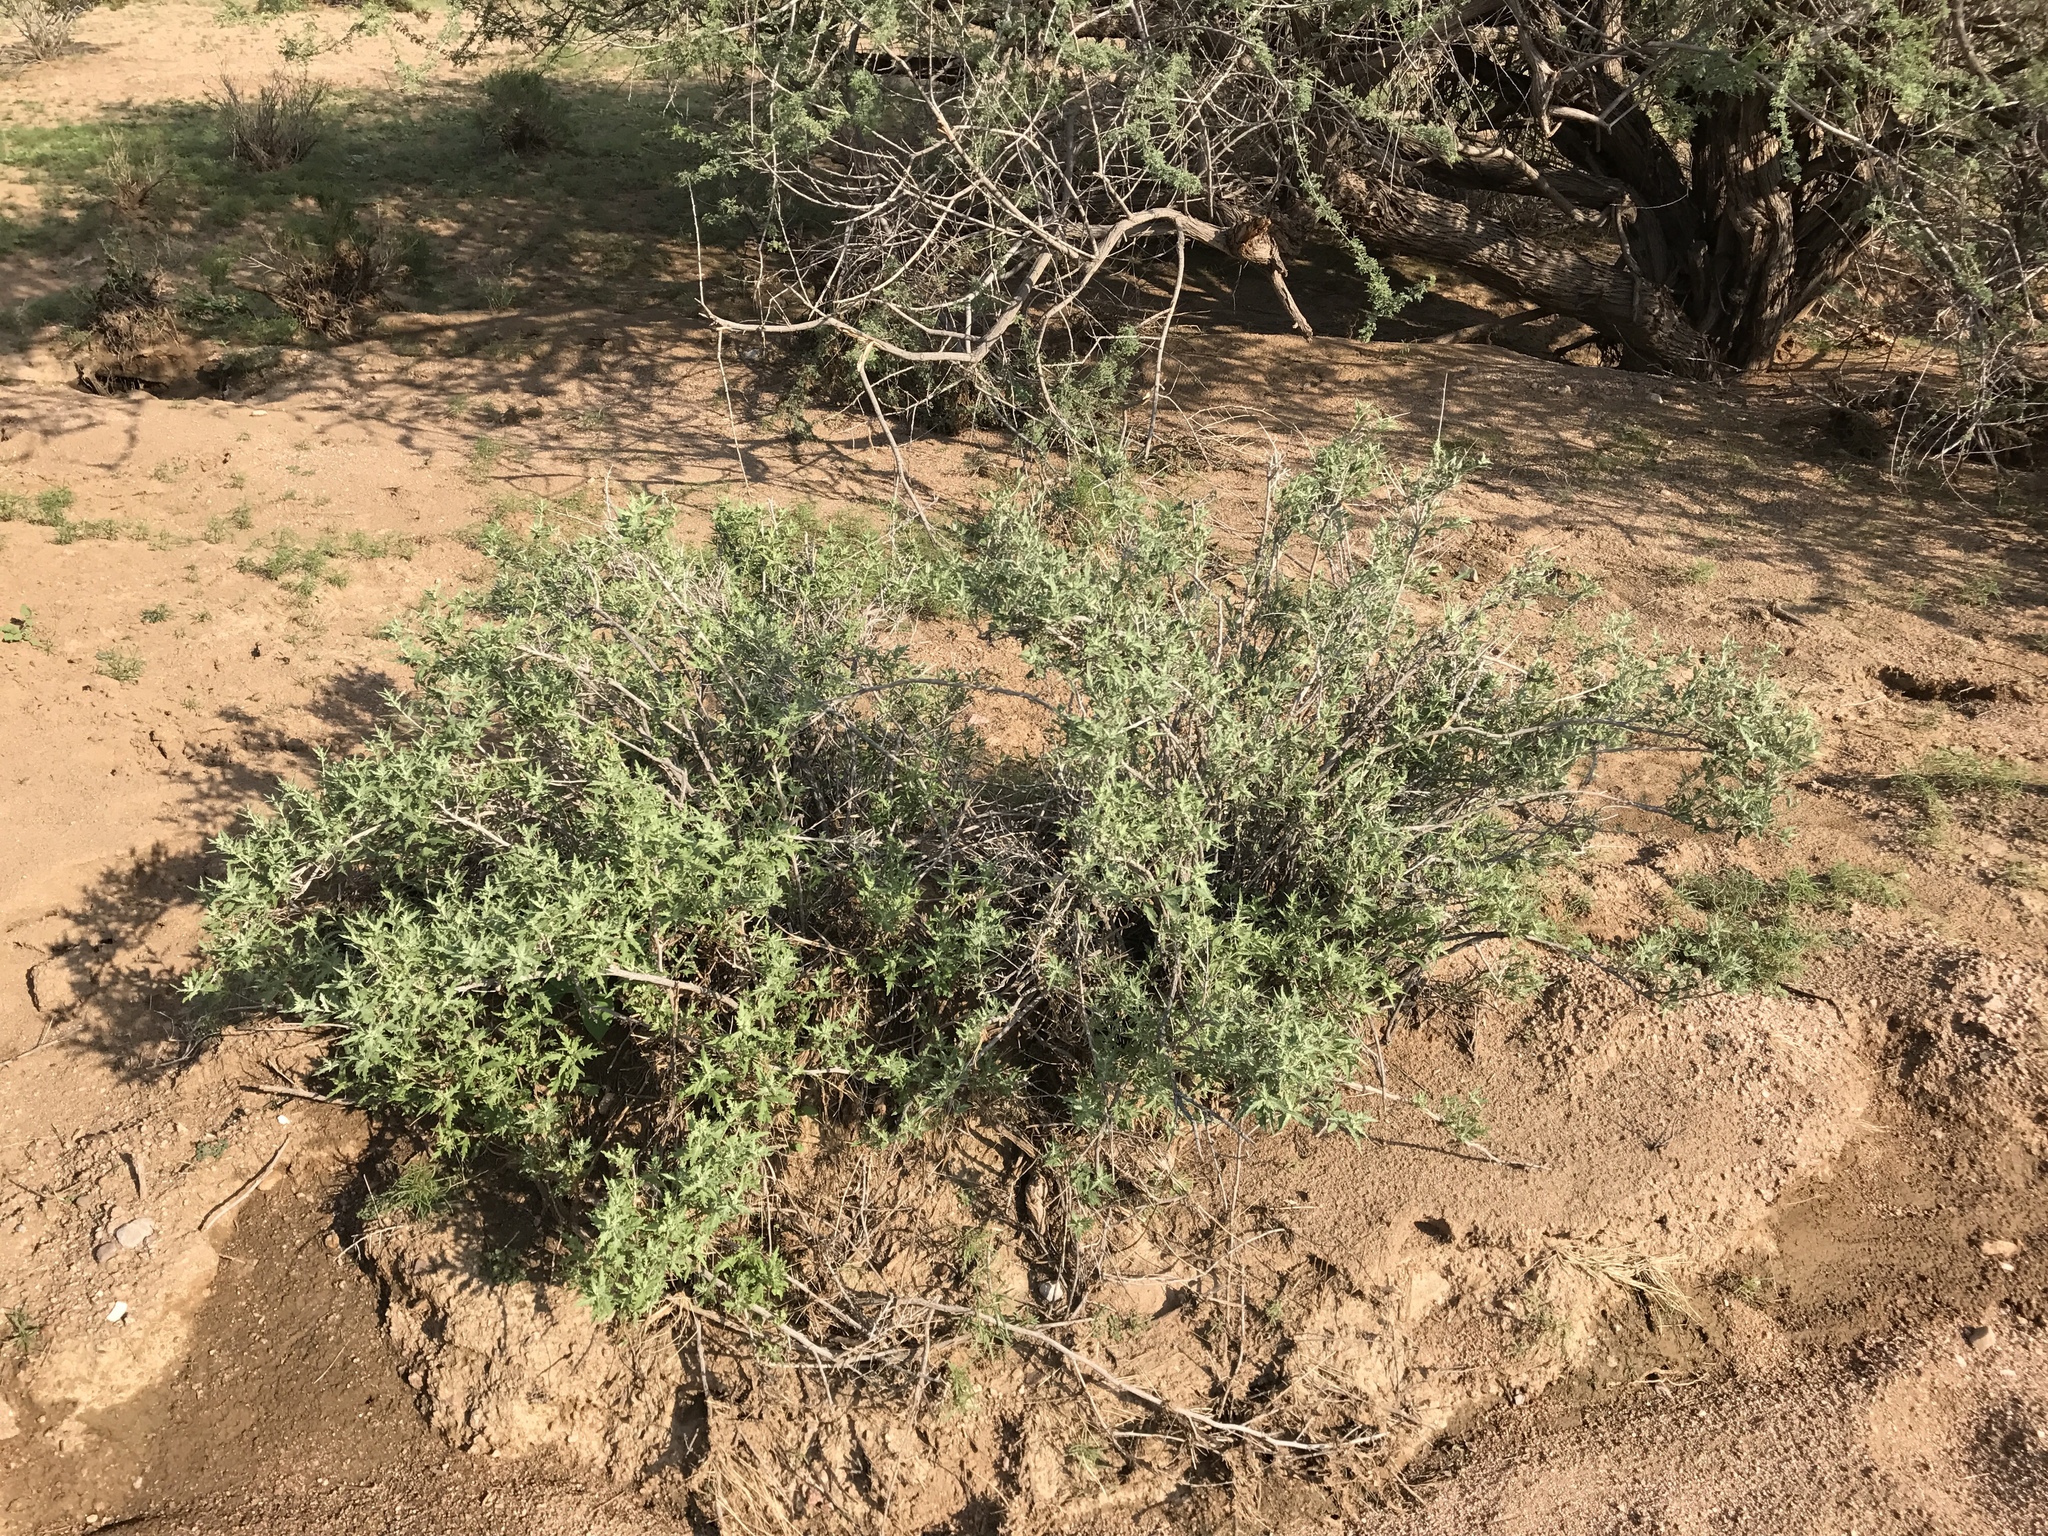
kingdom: Plantae
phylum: Tracheophyta
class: Magnoliopsida
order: Asterales
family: Asteraceae
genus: Ambrosia
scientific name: Ambrosia eriocentra
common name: Woolly bur-sage
